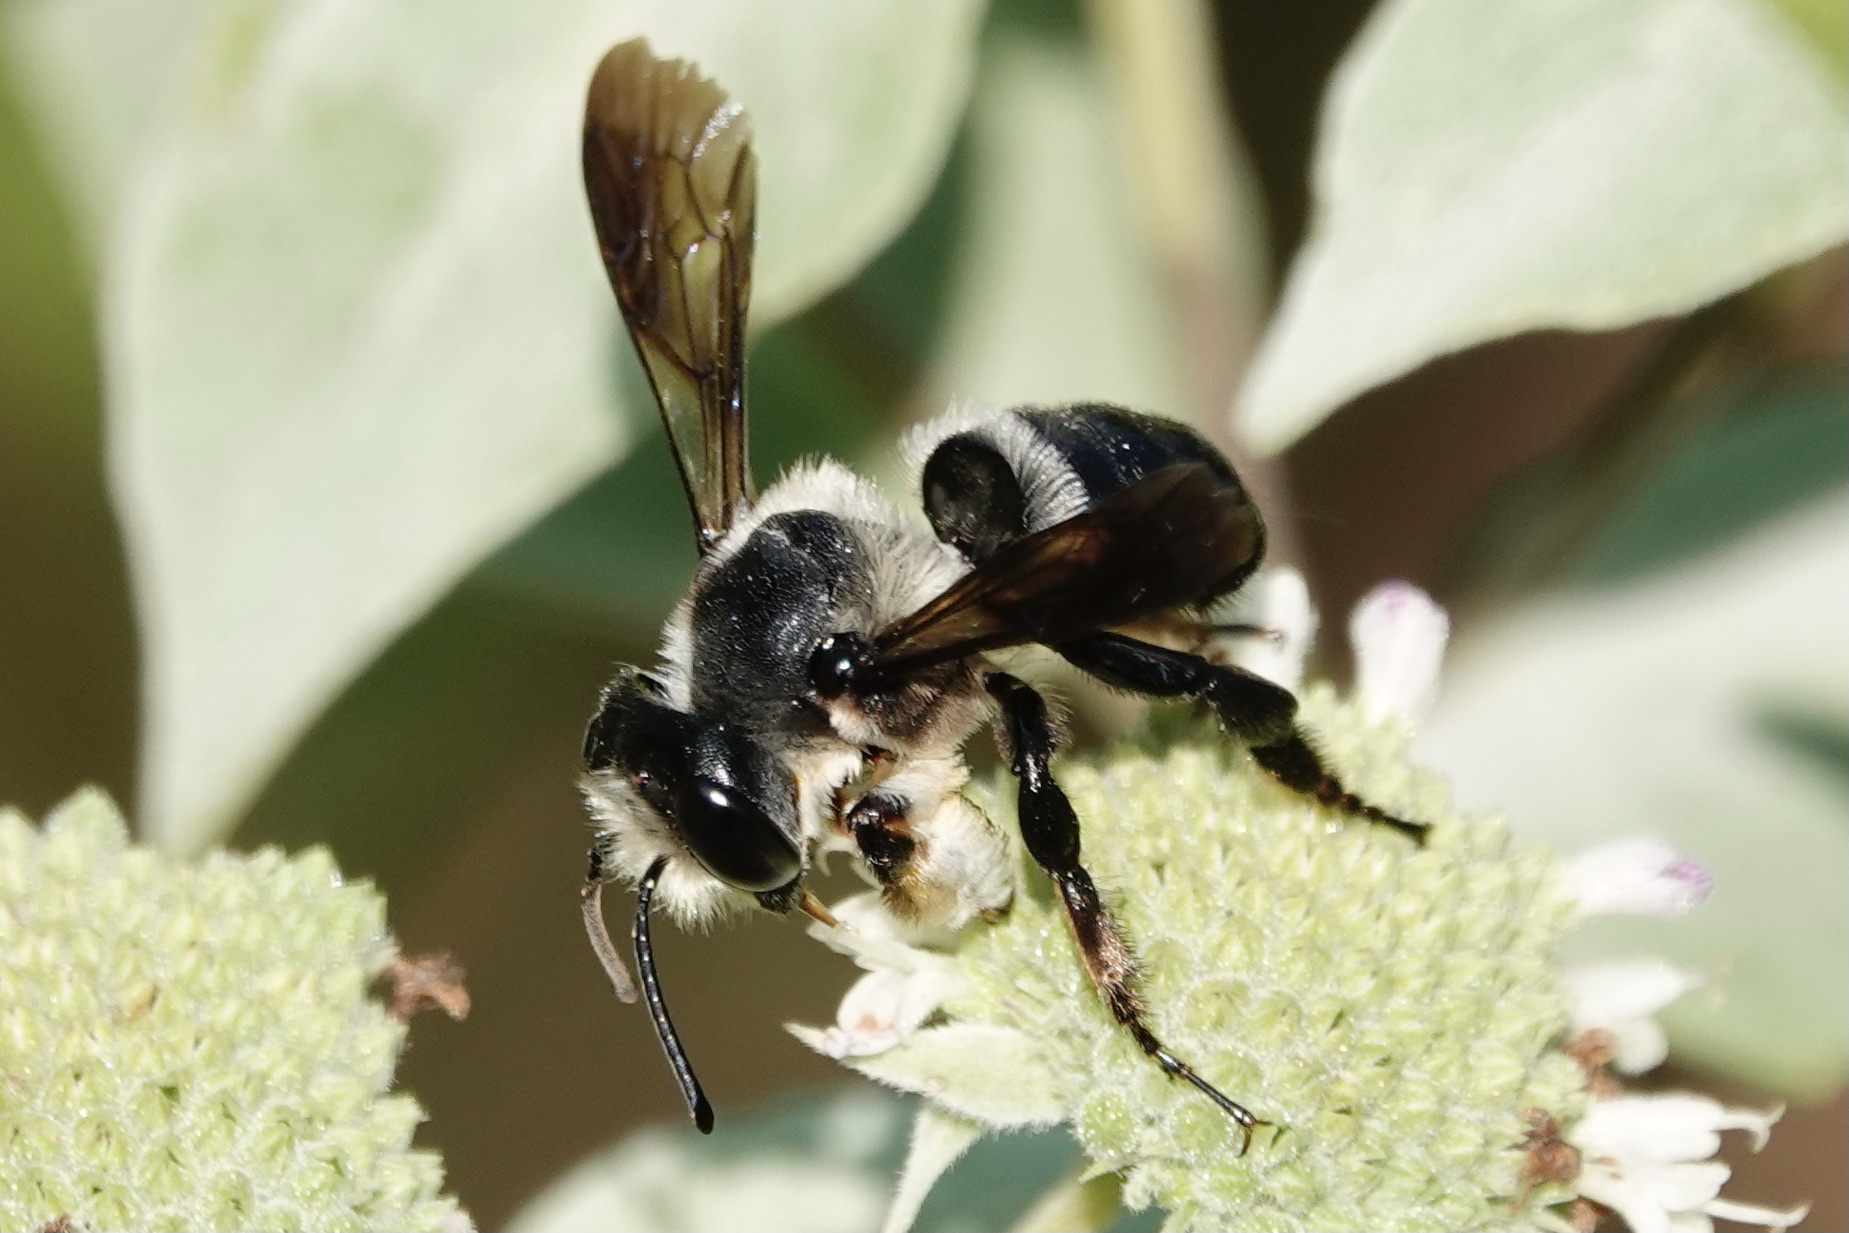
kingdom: Animalia
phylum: Arthropoda
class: Insecta
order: Hymenoptera
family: Megachilidae
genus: Megachile
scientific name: Megachile xylocopoides
